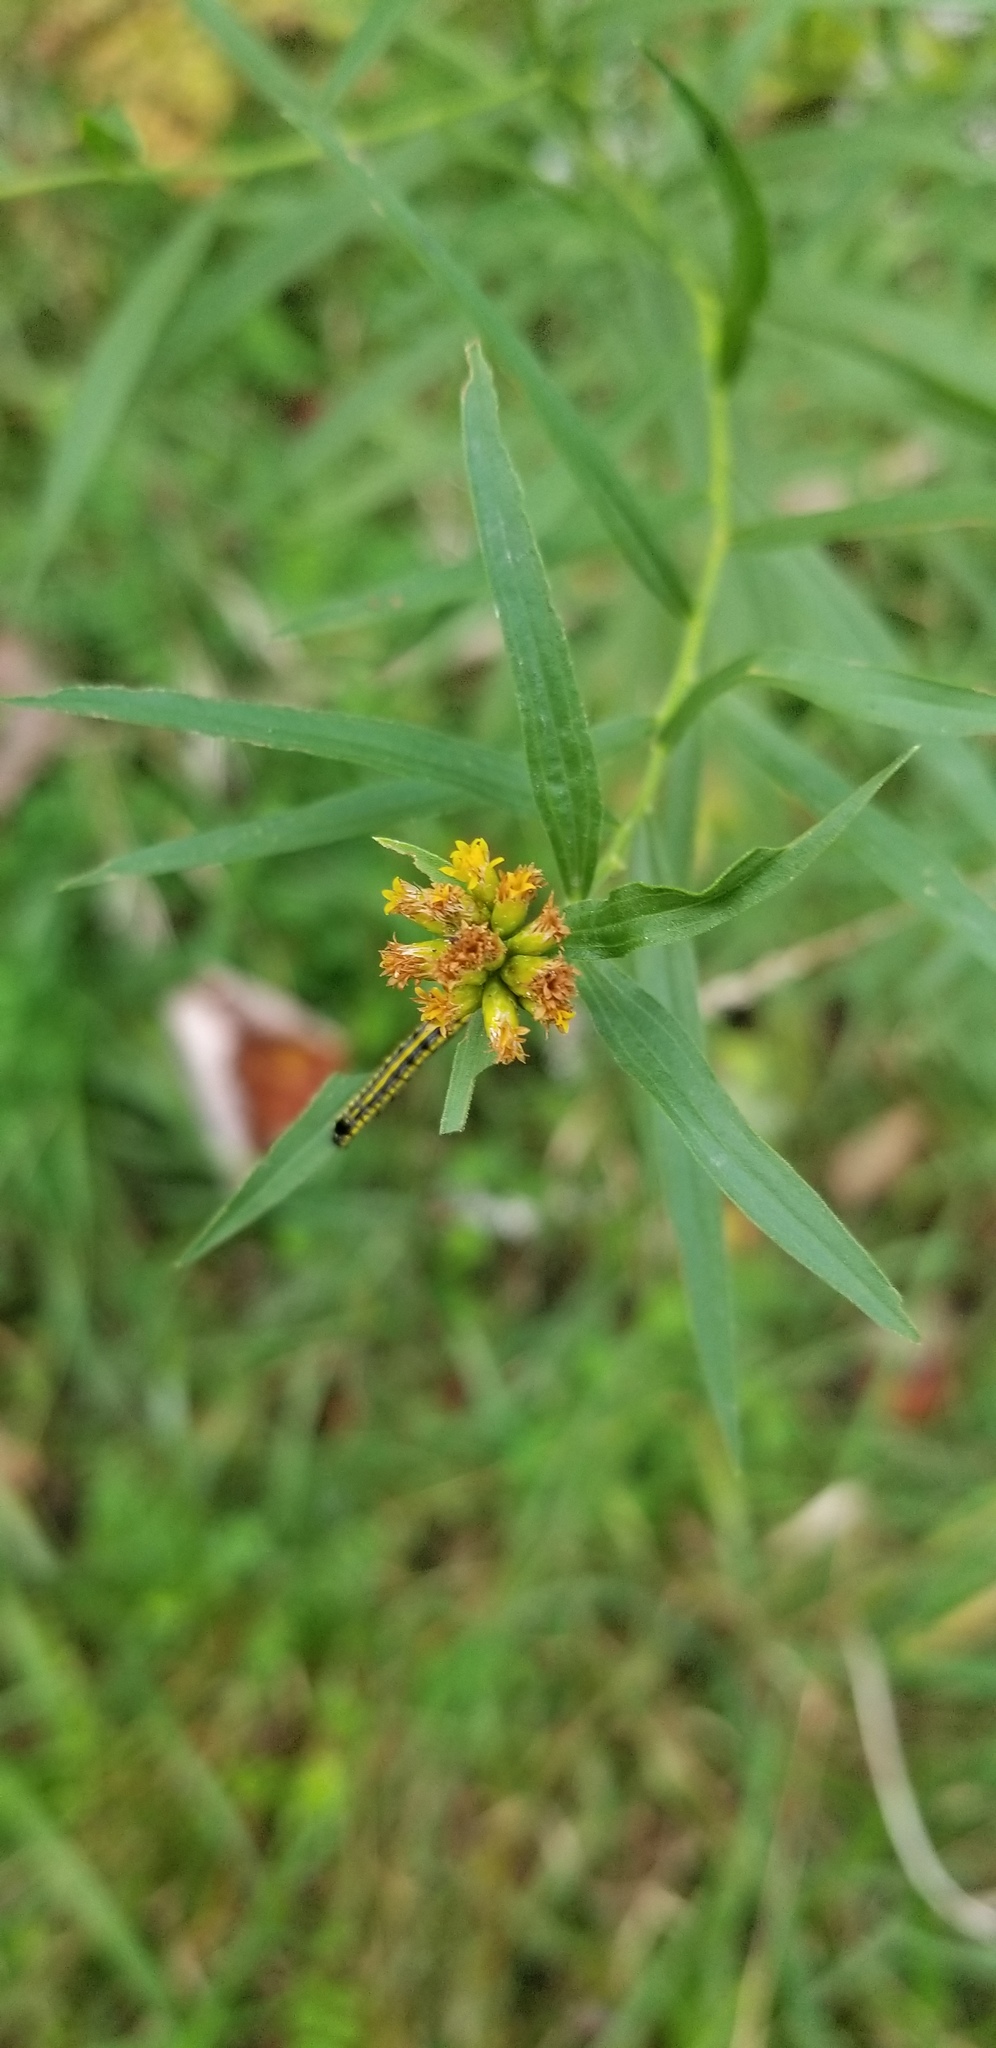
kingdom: Plantae
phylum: Tracheophyta
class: Magnoliopsida
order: Asterales
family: Asteraceae
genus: Euthamia
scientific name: Euthamia graminifolia
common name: Common goldentop
